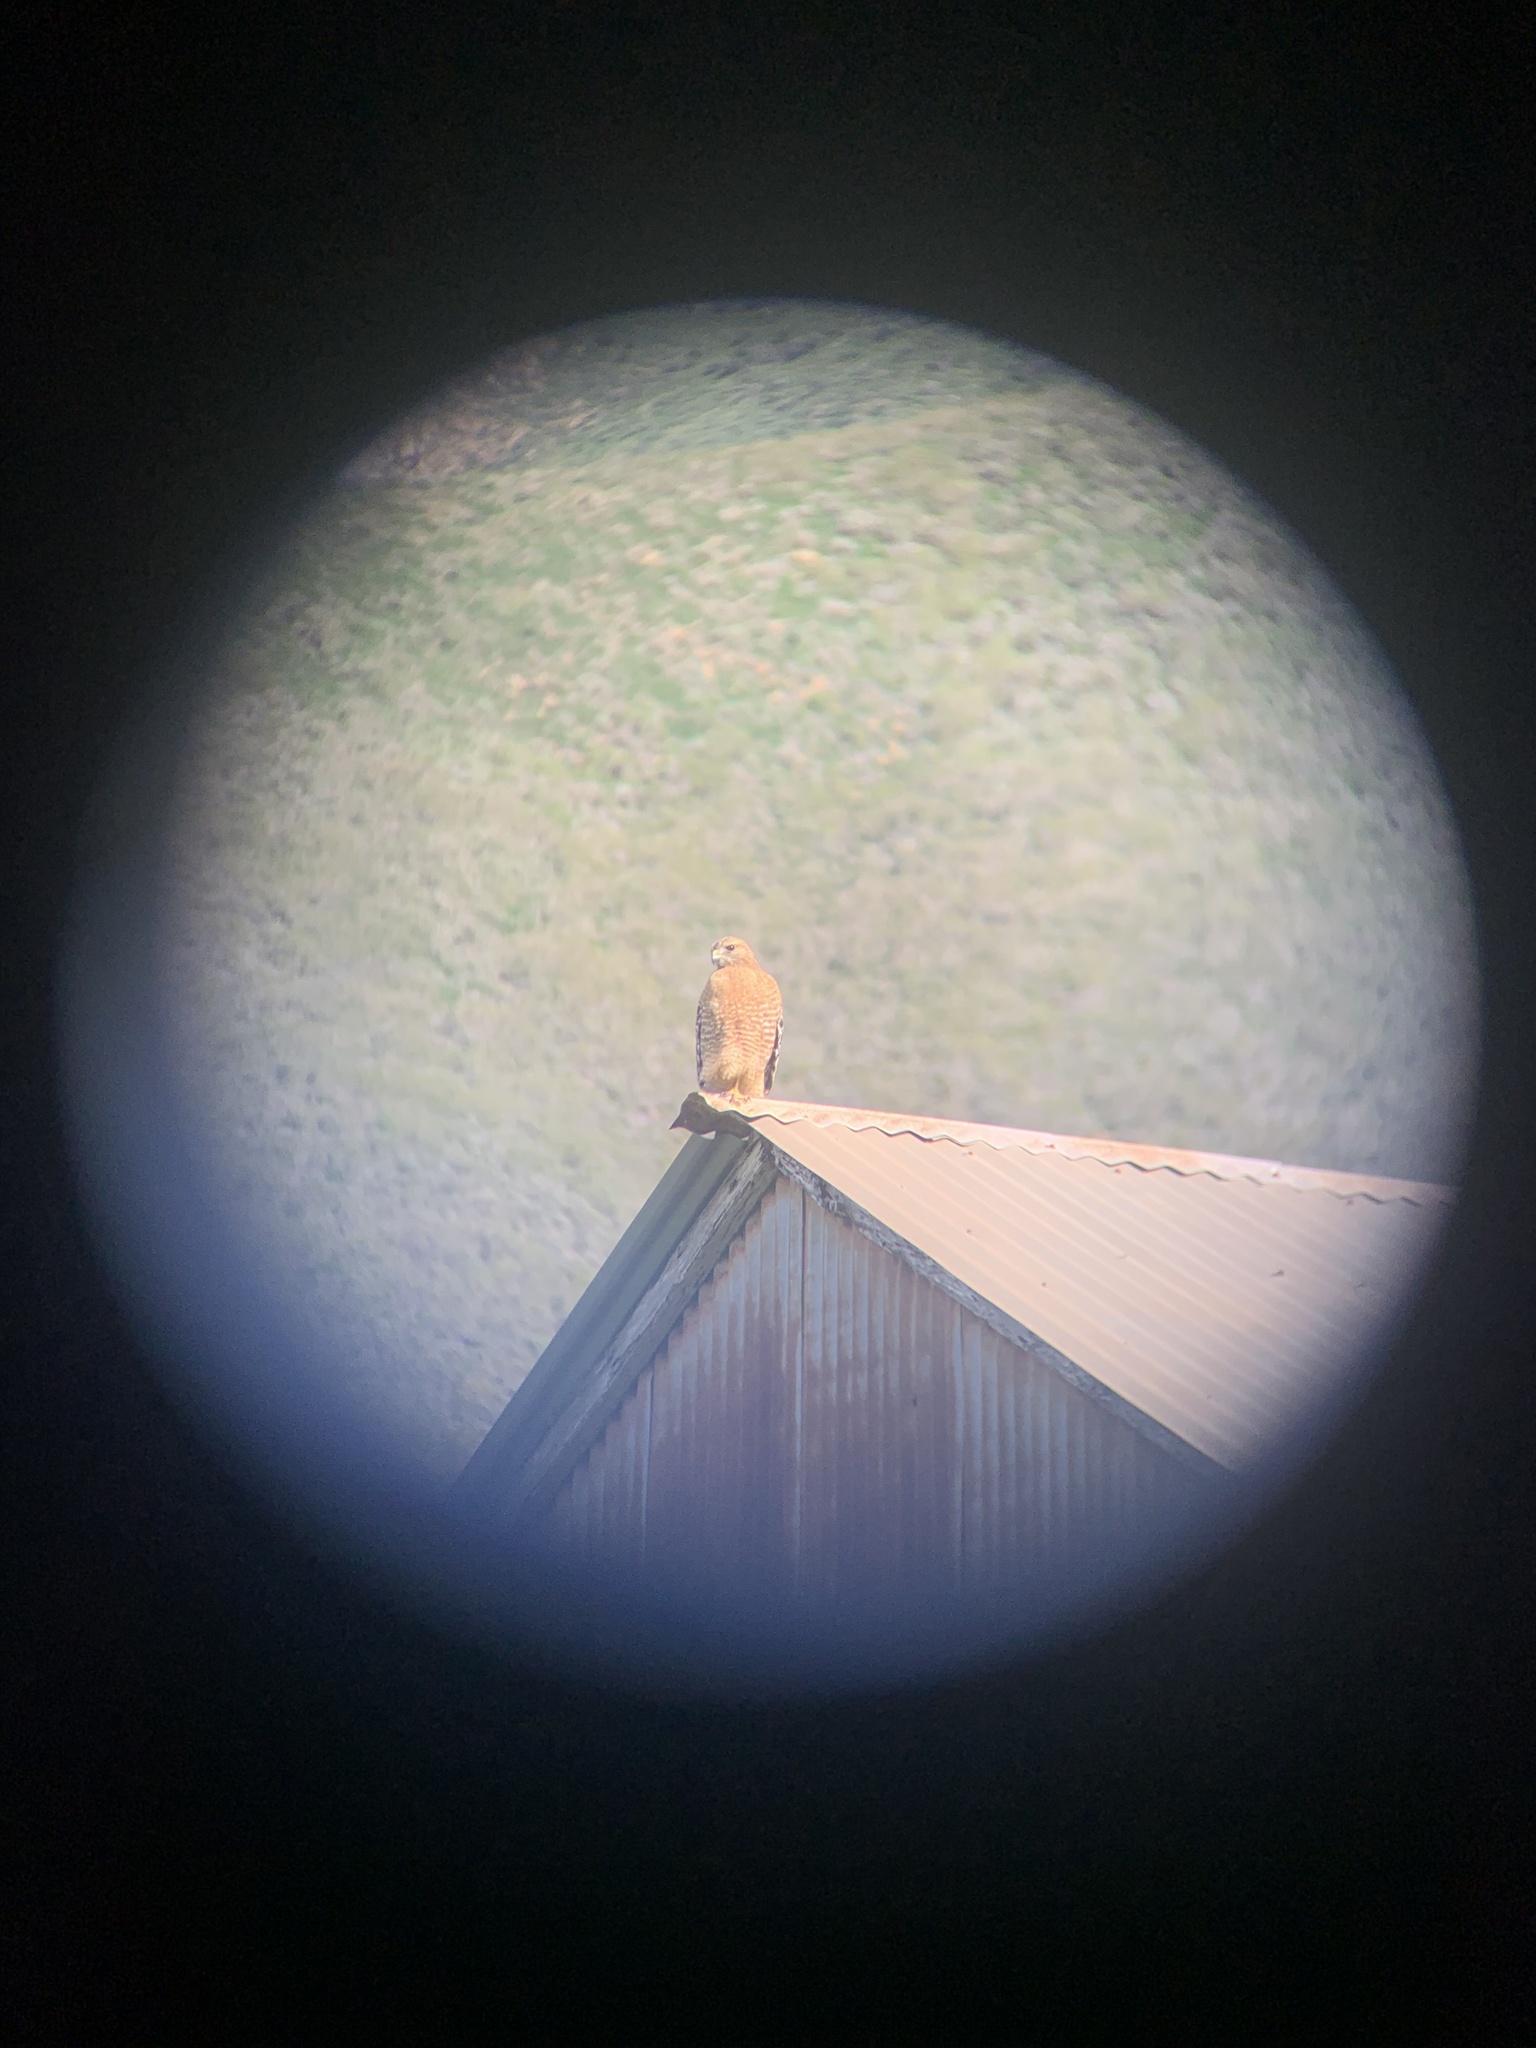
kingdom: Animalia
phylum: Chordata
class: Aves
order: Accipitriformes
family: Accipitridae
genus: Buteo
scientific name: Buteo lineatus
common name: Red-shouldered hawk
